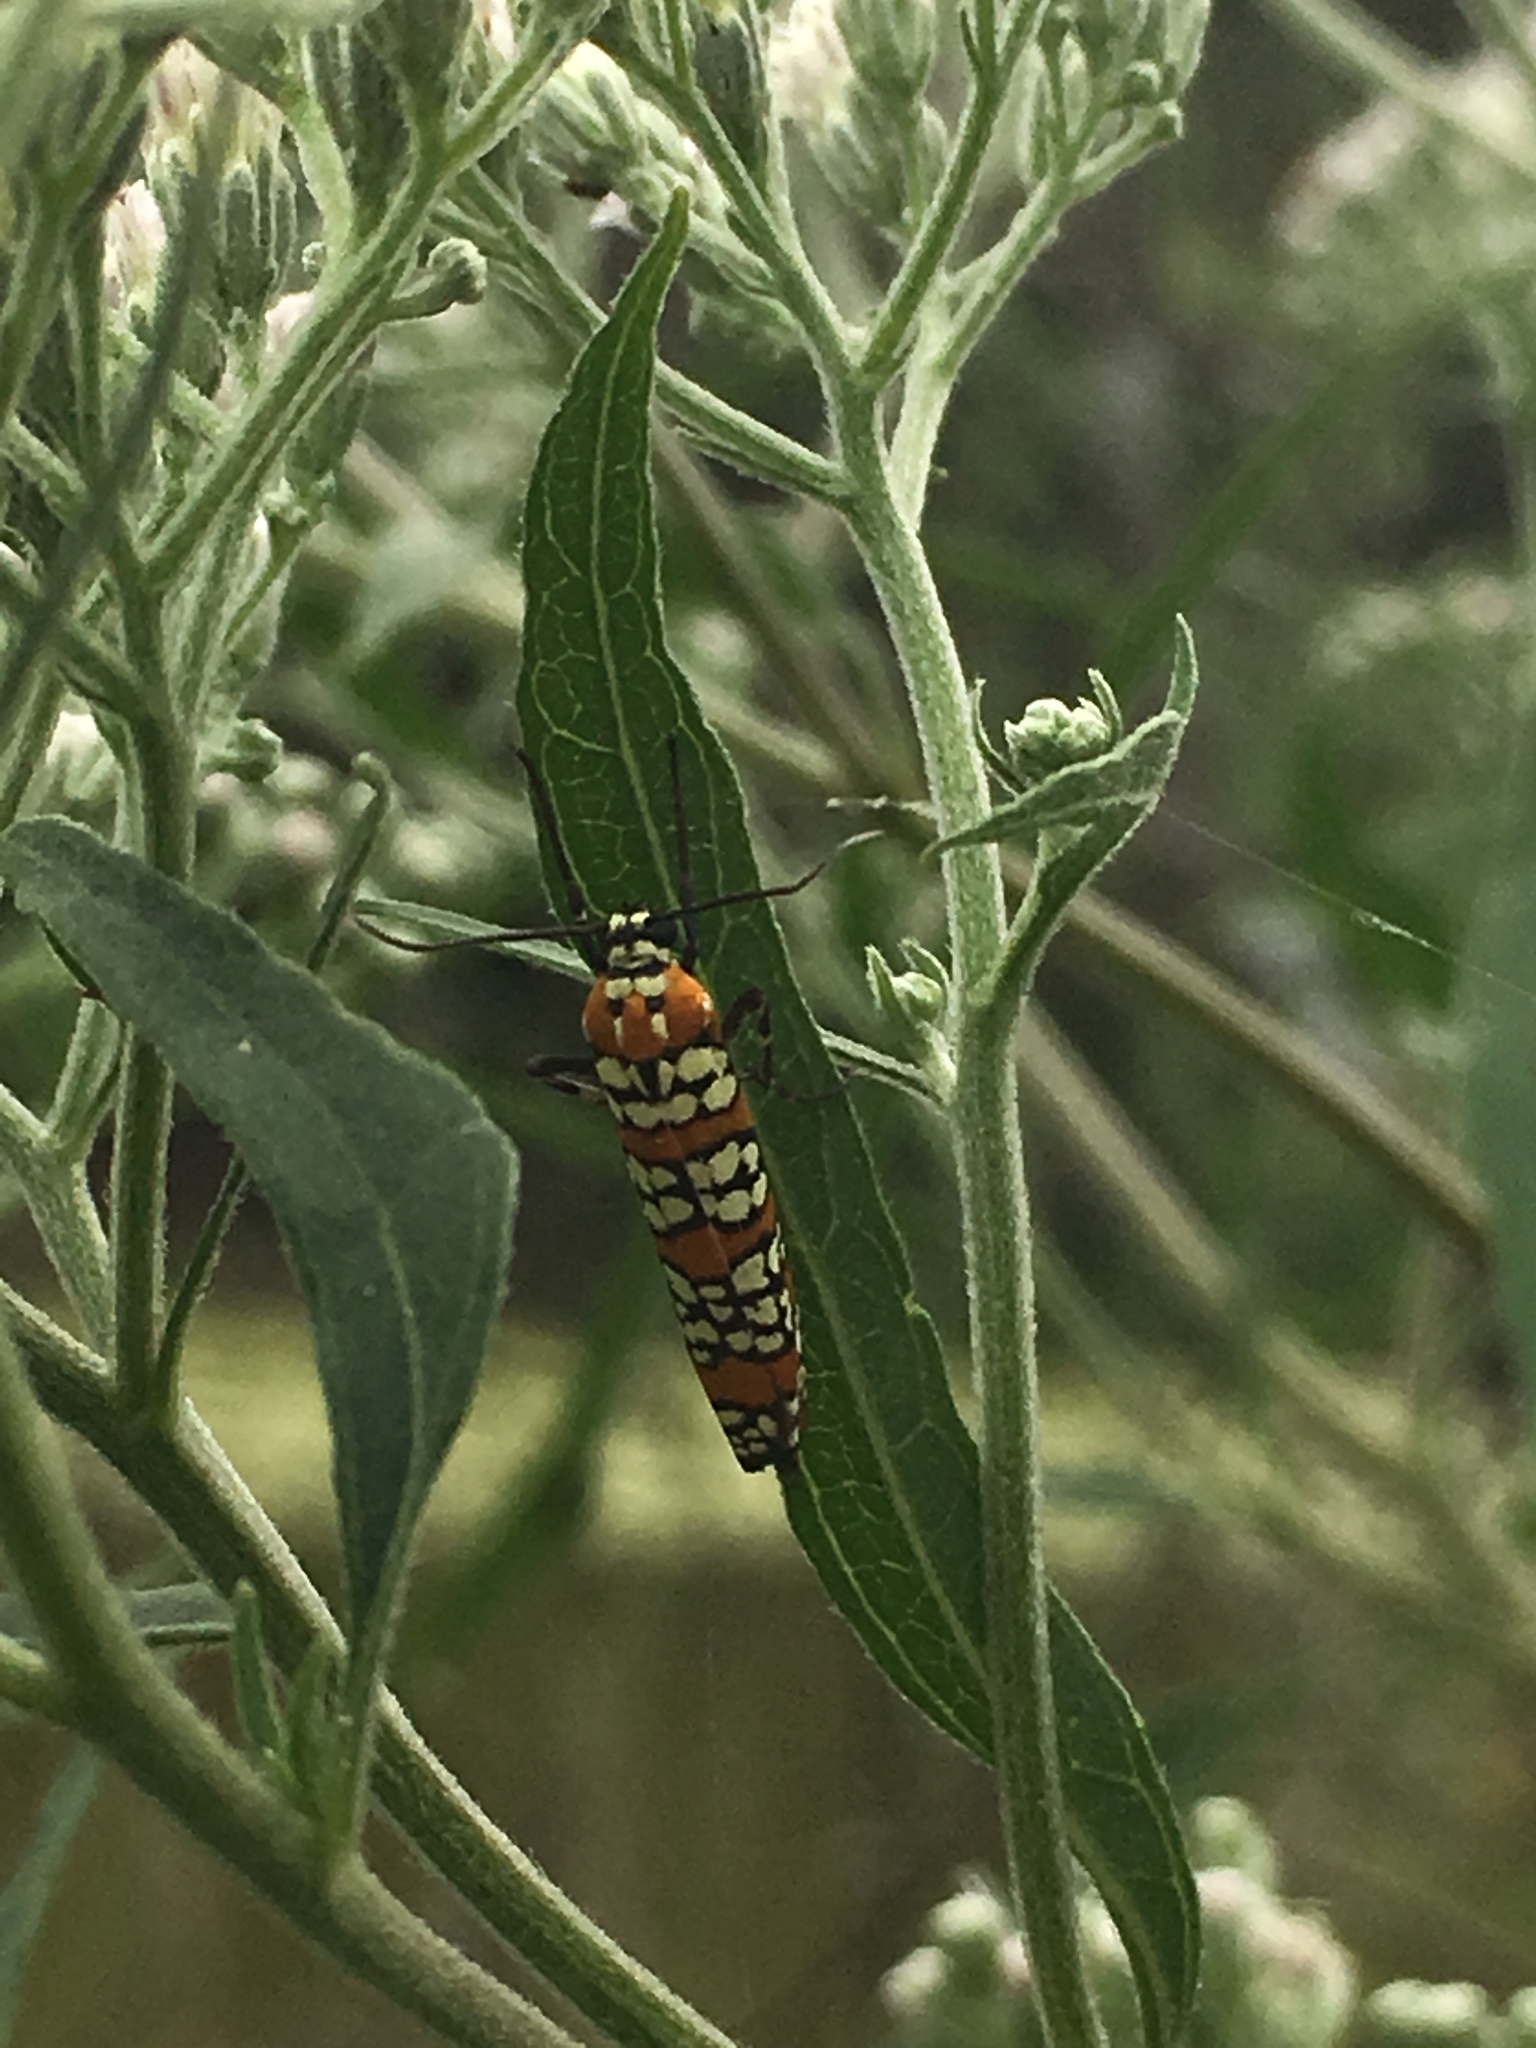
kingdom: Animalia
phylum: Arthropoda
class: Insecta
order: Lepidoptera
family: Attevidae
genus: Atteva
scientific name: Atteva punctella
